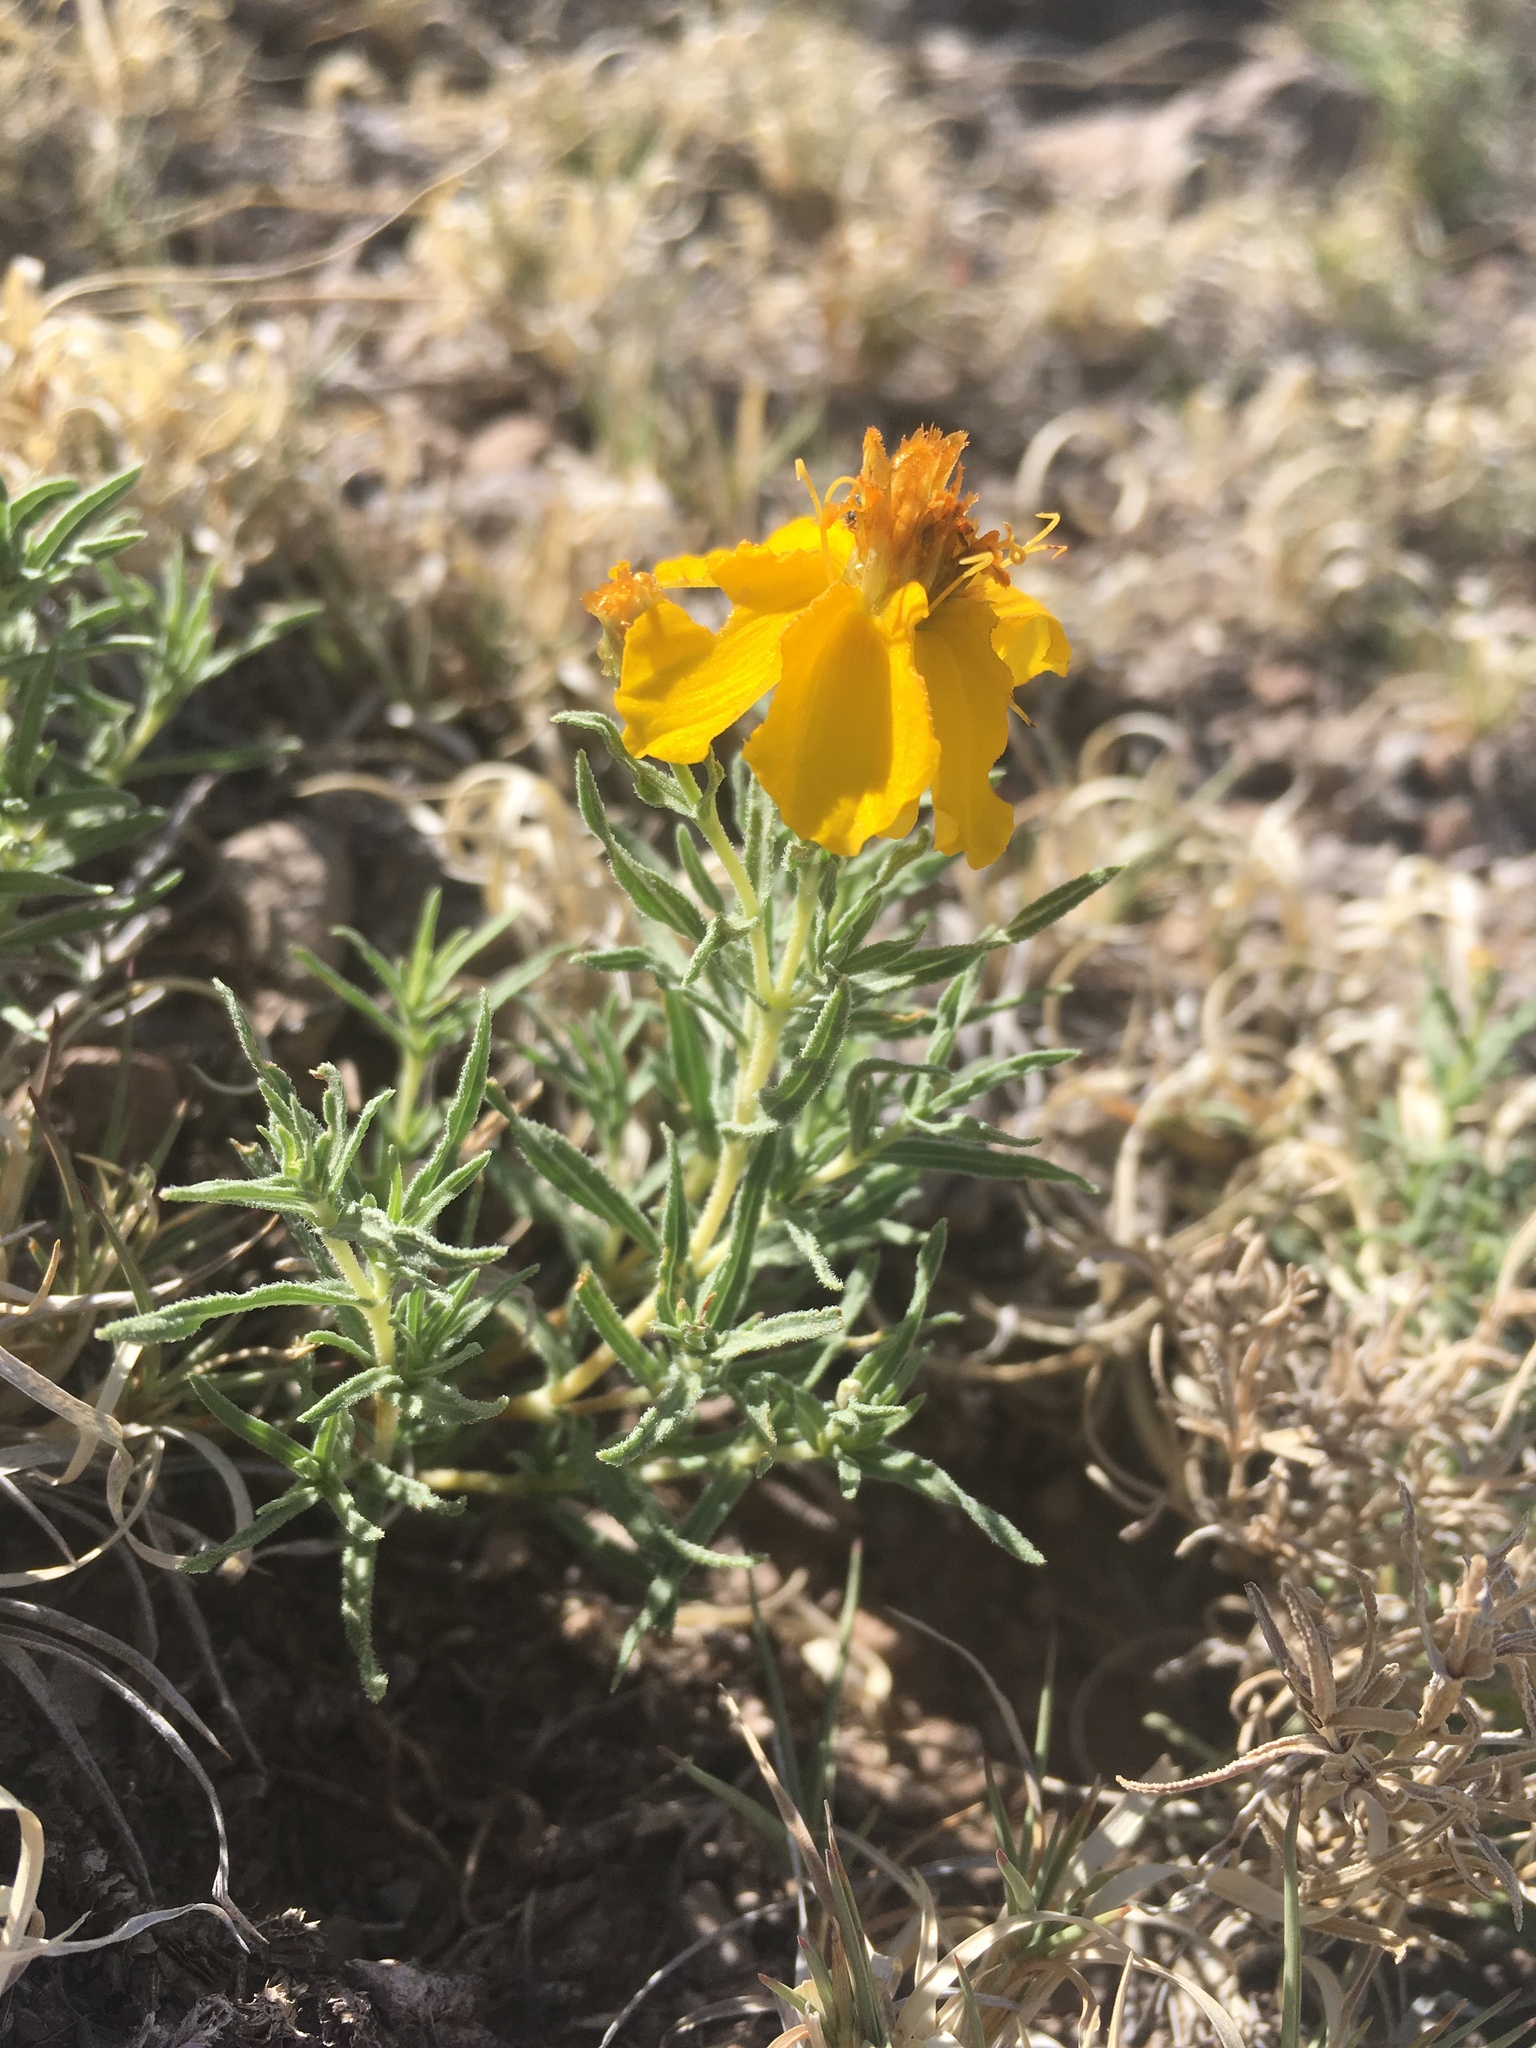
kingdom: Plantae
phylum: Tracheophyta
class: Magnoliopsida
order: Asterales
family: Asteraceae
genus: Zinnia
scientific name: Zinnia grandiflora
